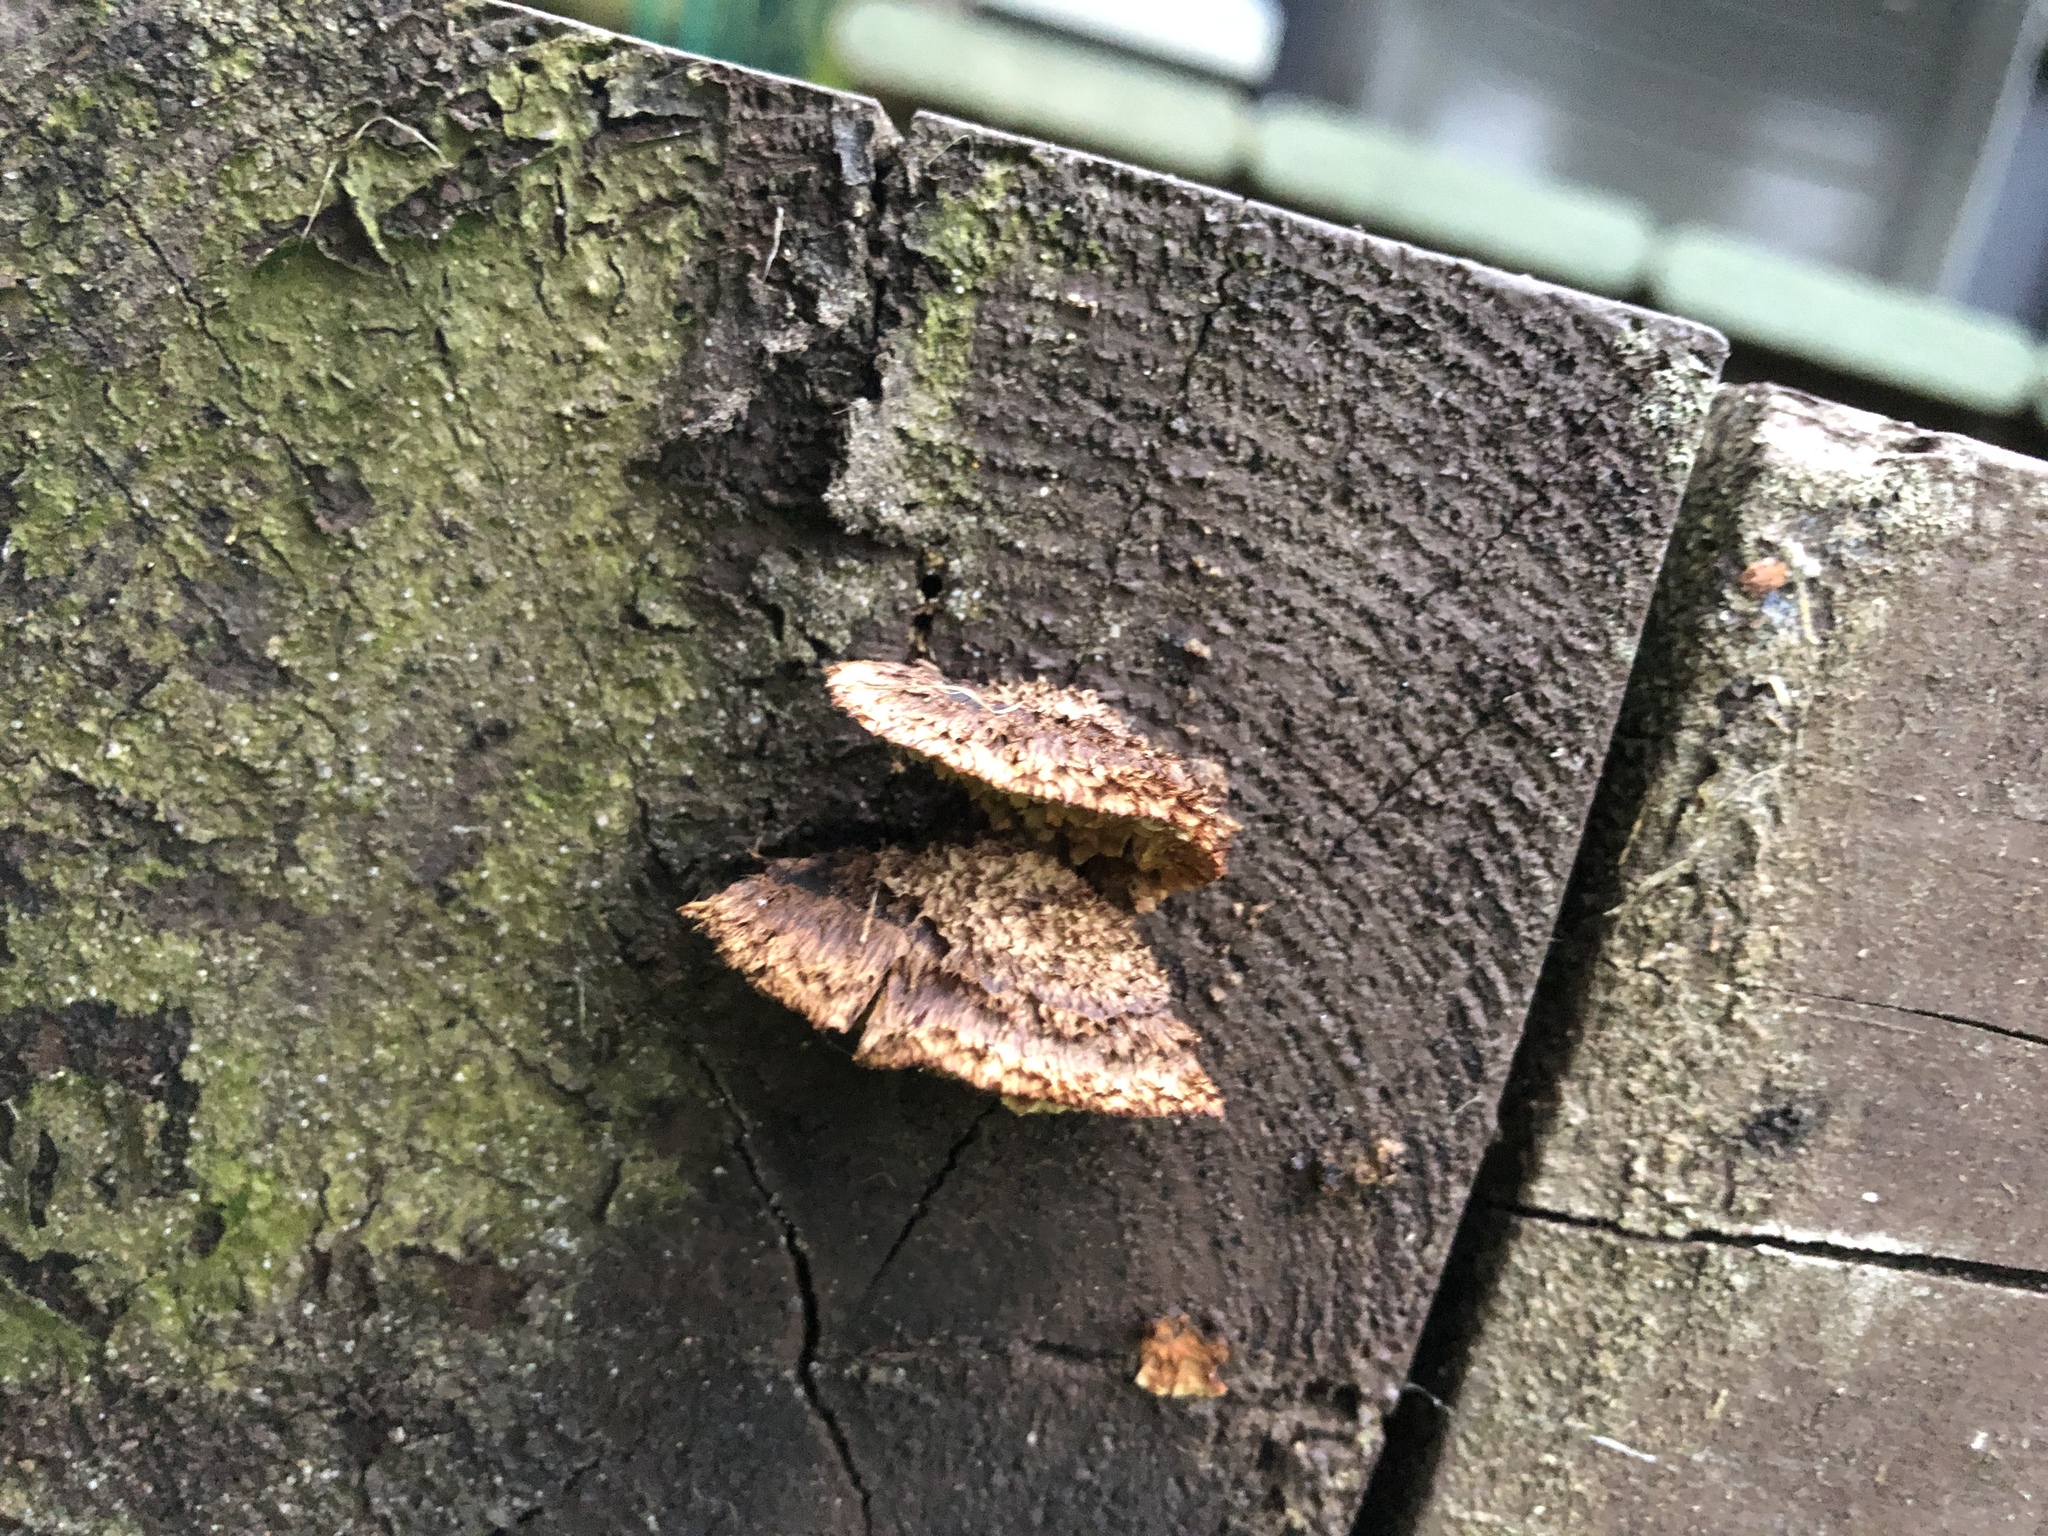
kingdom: Fungi
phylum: Basidiomycota
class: Agaricomycetes
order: Gloeophyllales
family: Gloeophyllaceae
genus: Gloeophyllum
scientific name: Gloeophyllum sepiarium
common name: Conifer mazegill
